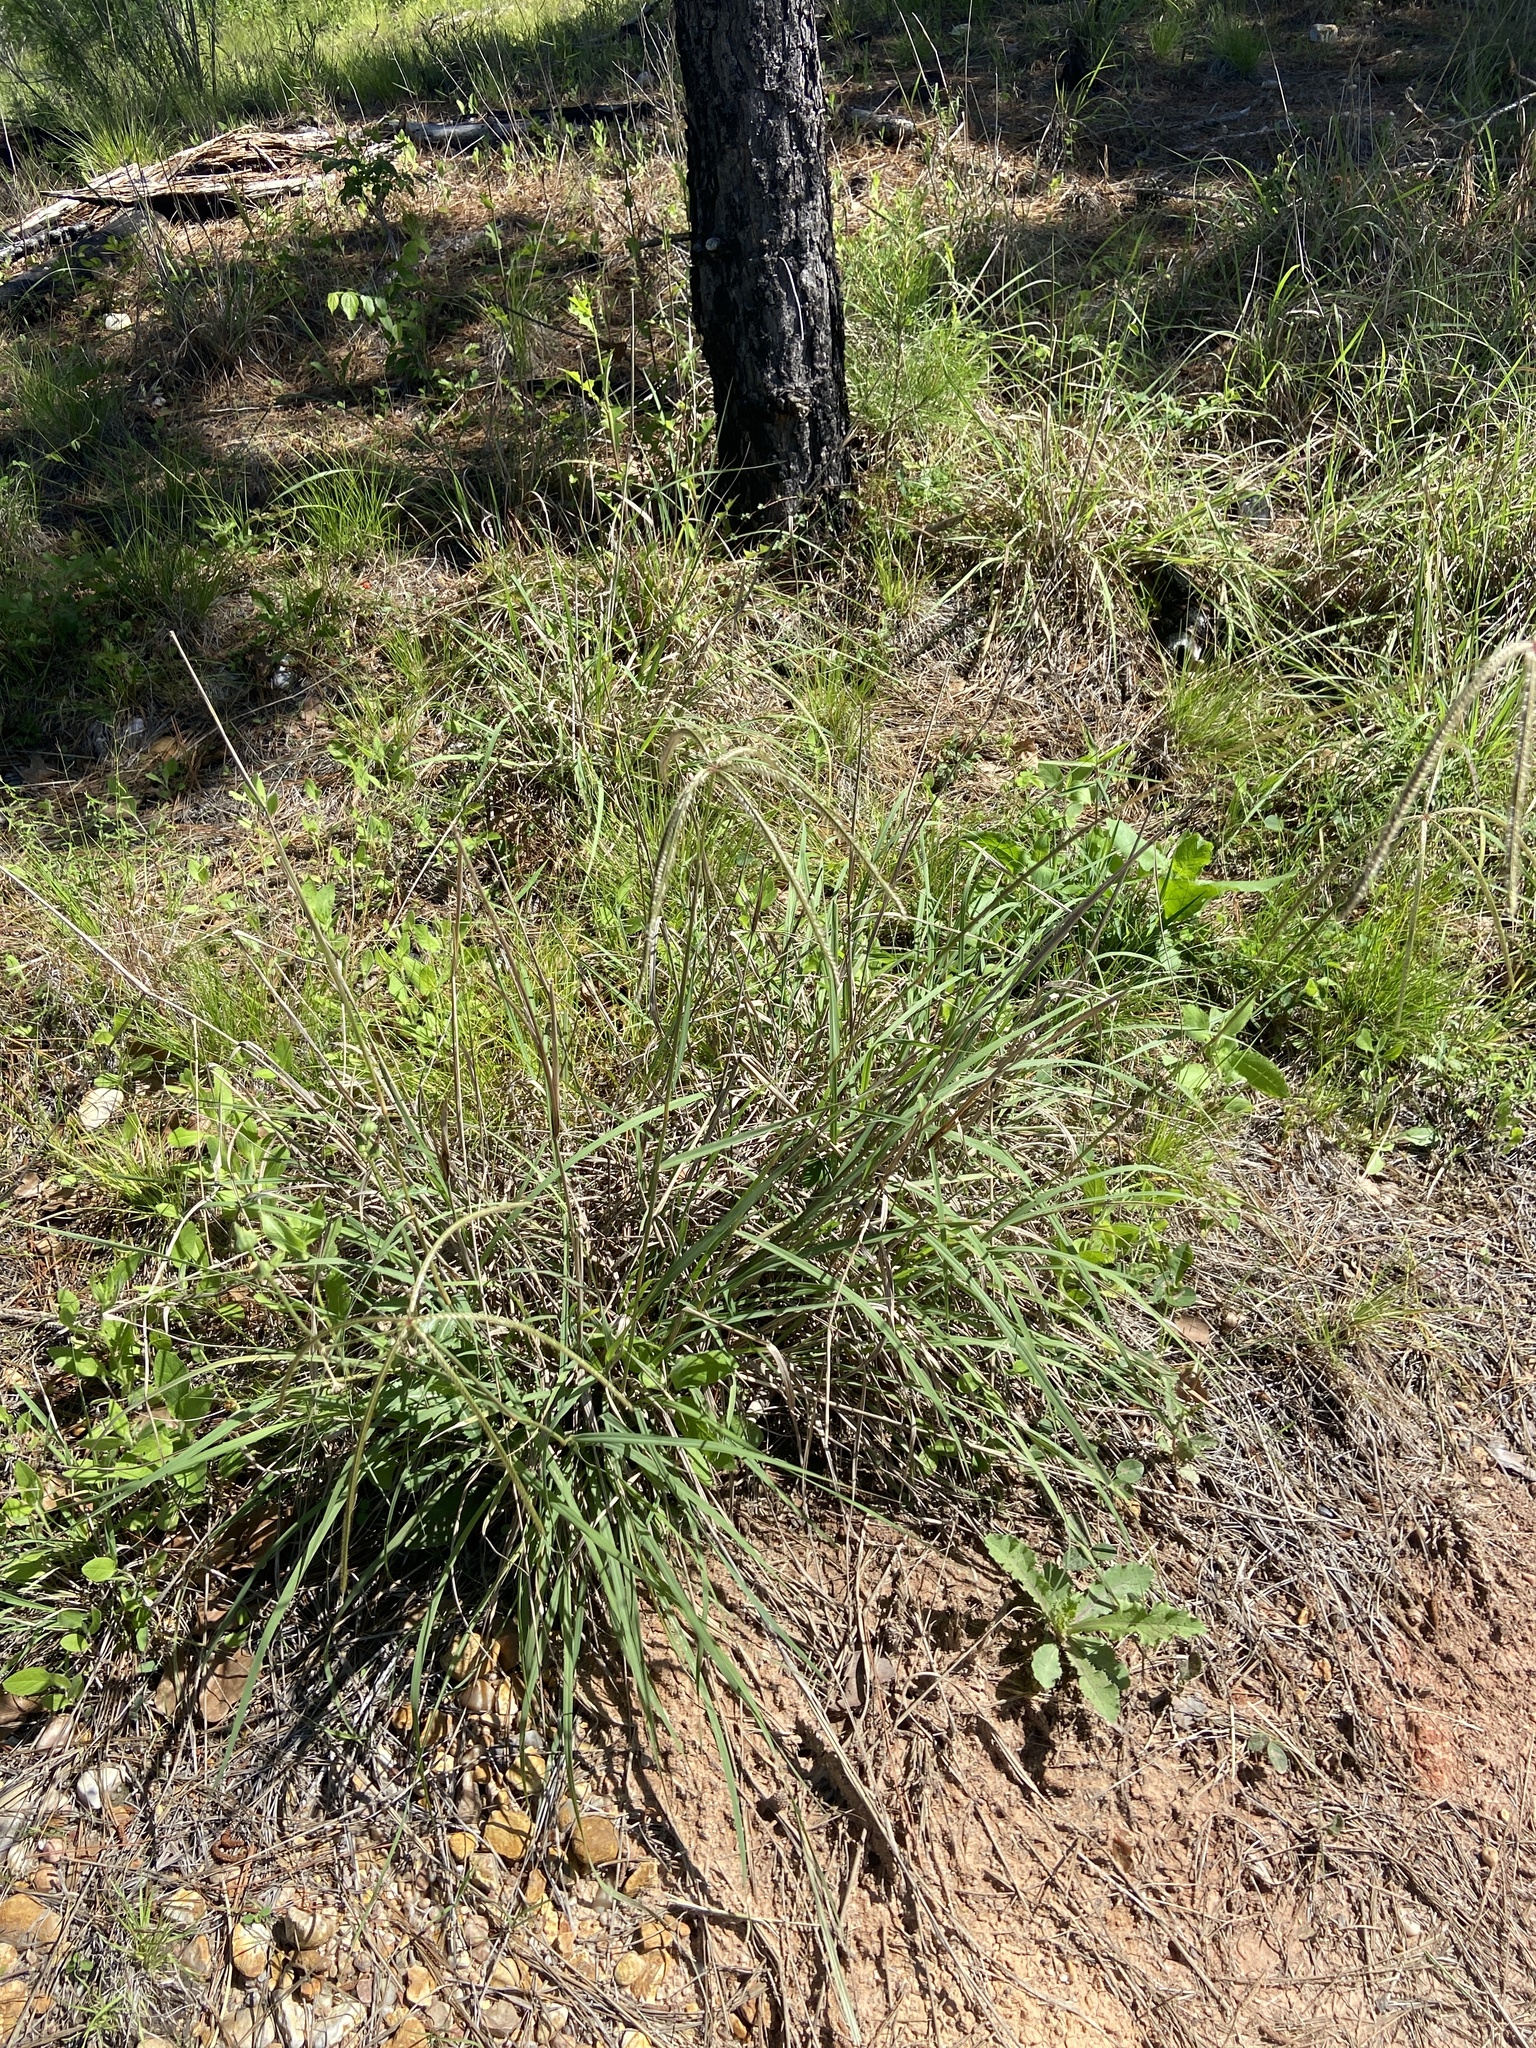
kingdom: Plantae
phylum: Tracheophyta
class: Liliopsida
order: Poales
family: Poaceae
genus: Stapfochloa
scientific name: Stapfochloa canterae
